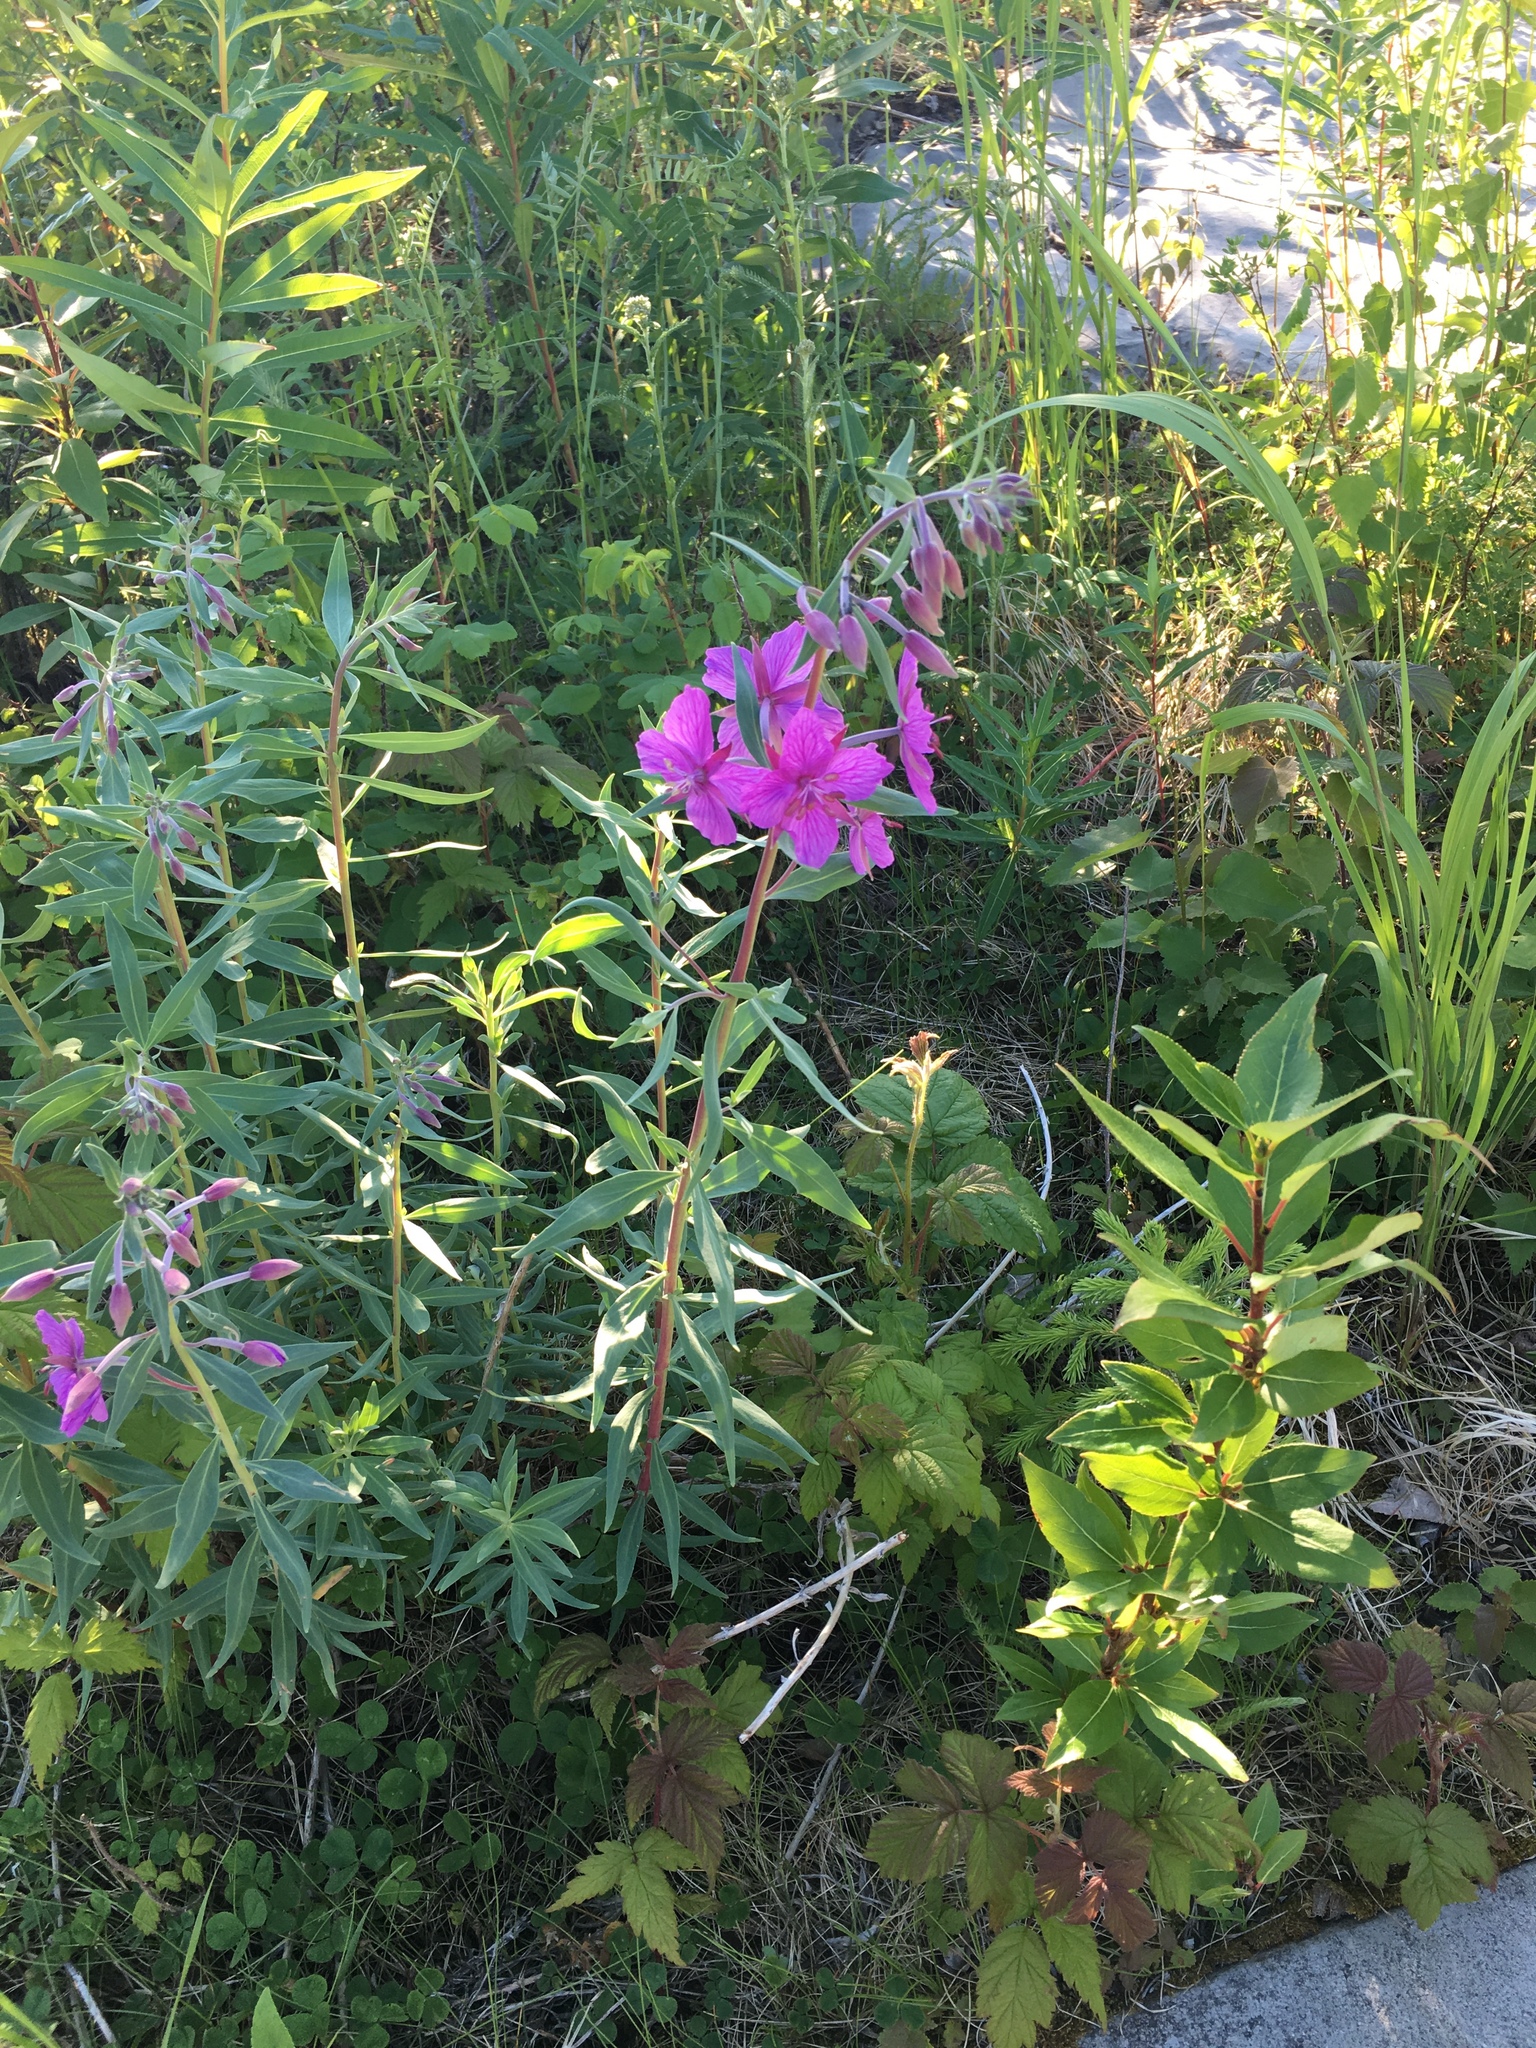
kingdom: Plantae
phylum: Tracheophyta
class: Magnoliopsida
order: Myrtales
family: Onagraceae
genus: Chamaenerion
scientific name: Chamaenerion angustifolium
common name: Fireweed
